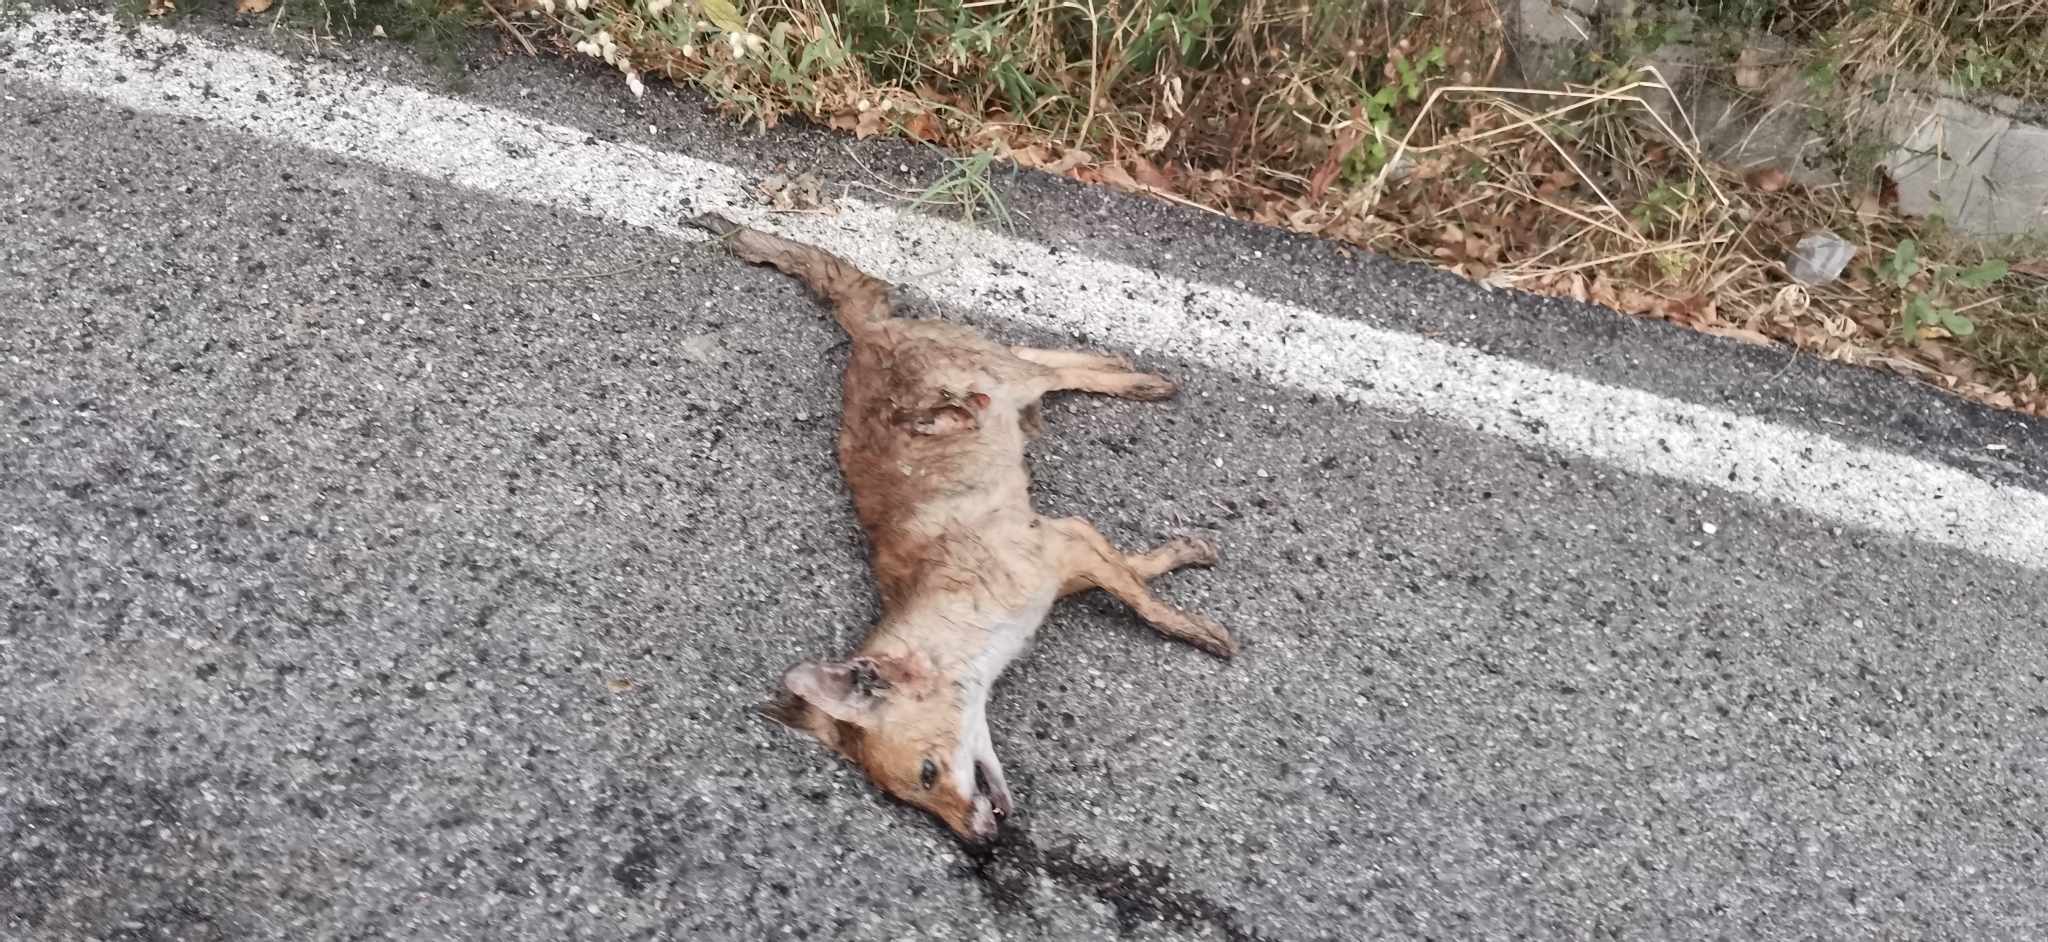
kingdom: Animalia
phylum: Chordata
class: Mammalia
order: Carnivora
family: Canidae
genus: Vulpes
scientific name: Vulpes vulpes
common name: Red fox
